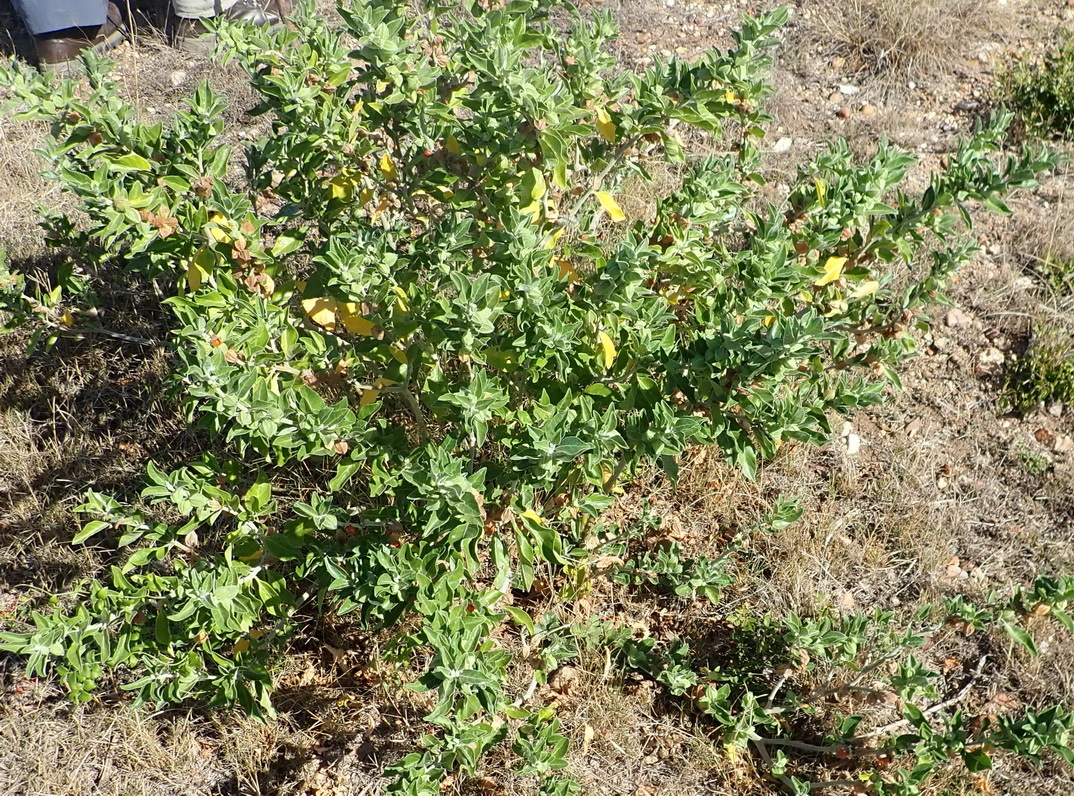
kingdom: Plantae
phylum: Tracheophyta
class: Magnoliopsida
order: Solanales
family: Solanaceae
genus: Withania
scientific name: Withania somnifera
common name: Winter-cherry
